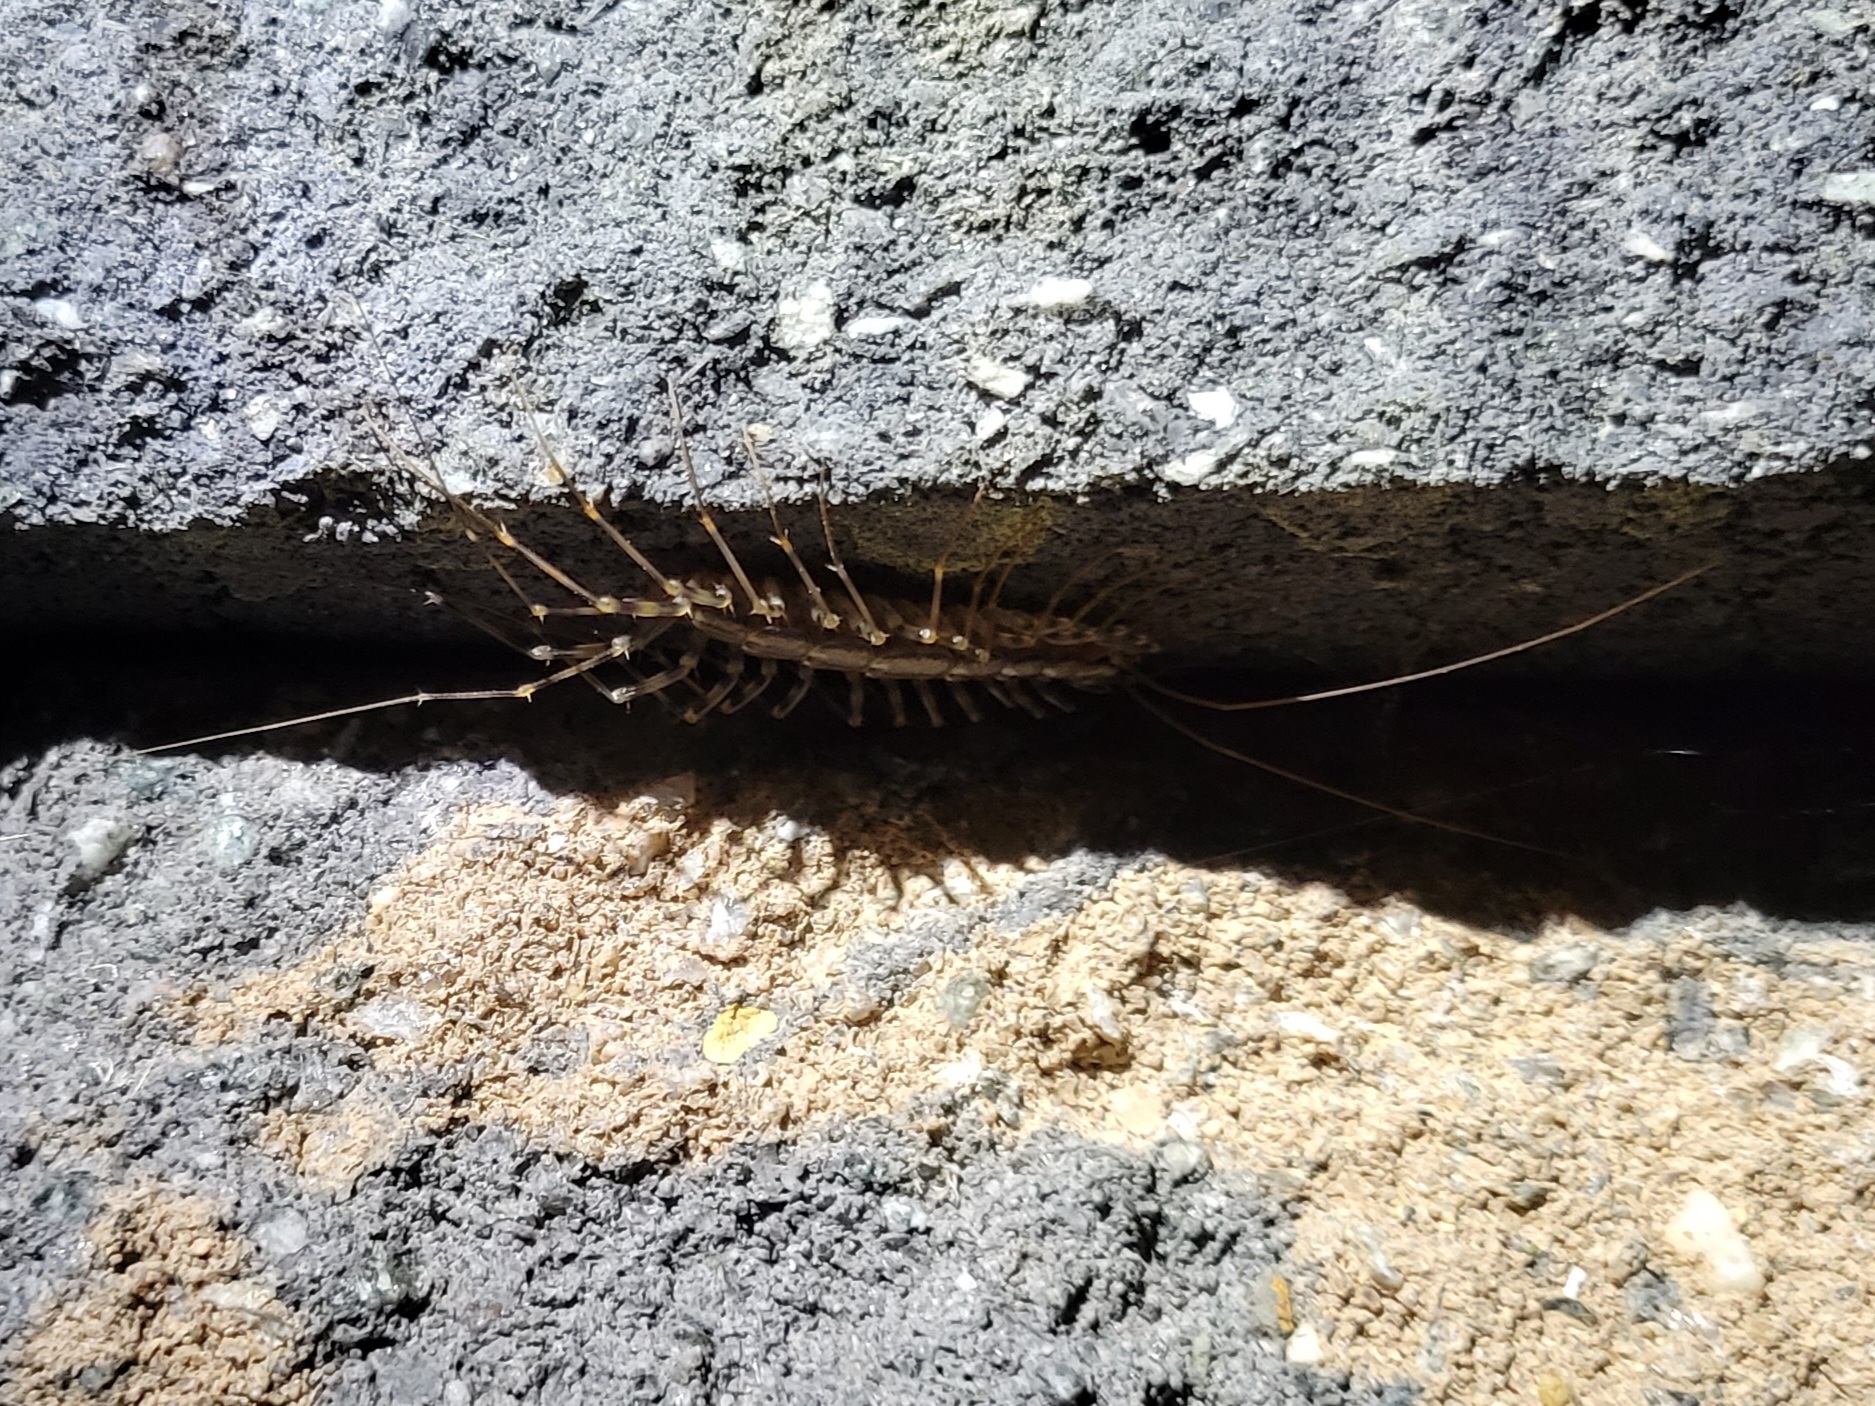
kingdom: Animalia
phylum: Arthropoda
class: Chilopoda
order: Scutigeromorpha
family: Scutigeridae
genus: Scutigera
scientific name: Scutigera coleoptrata
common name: House centipede
